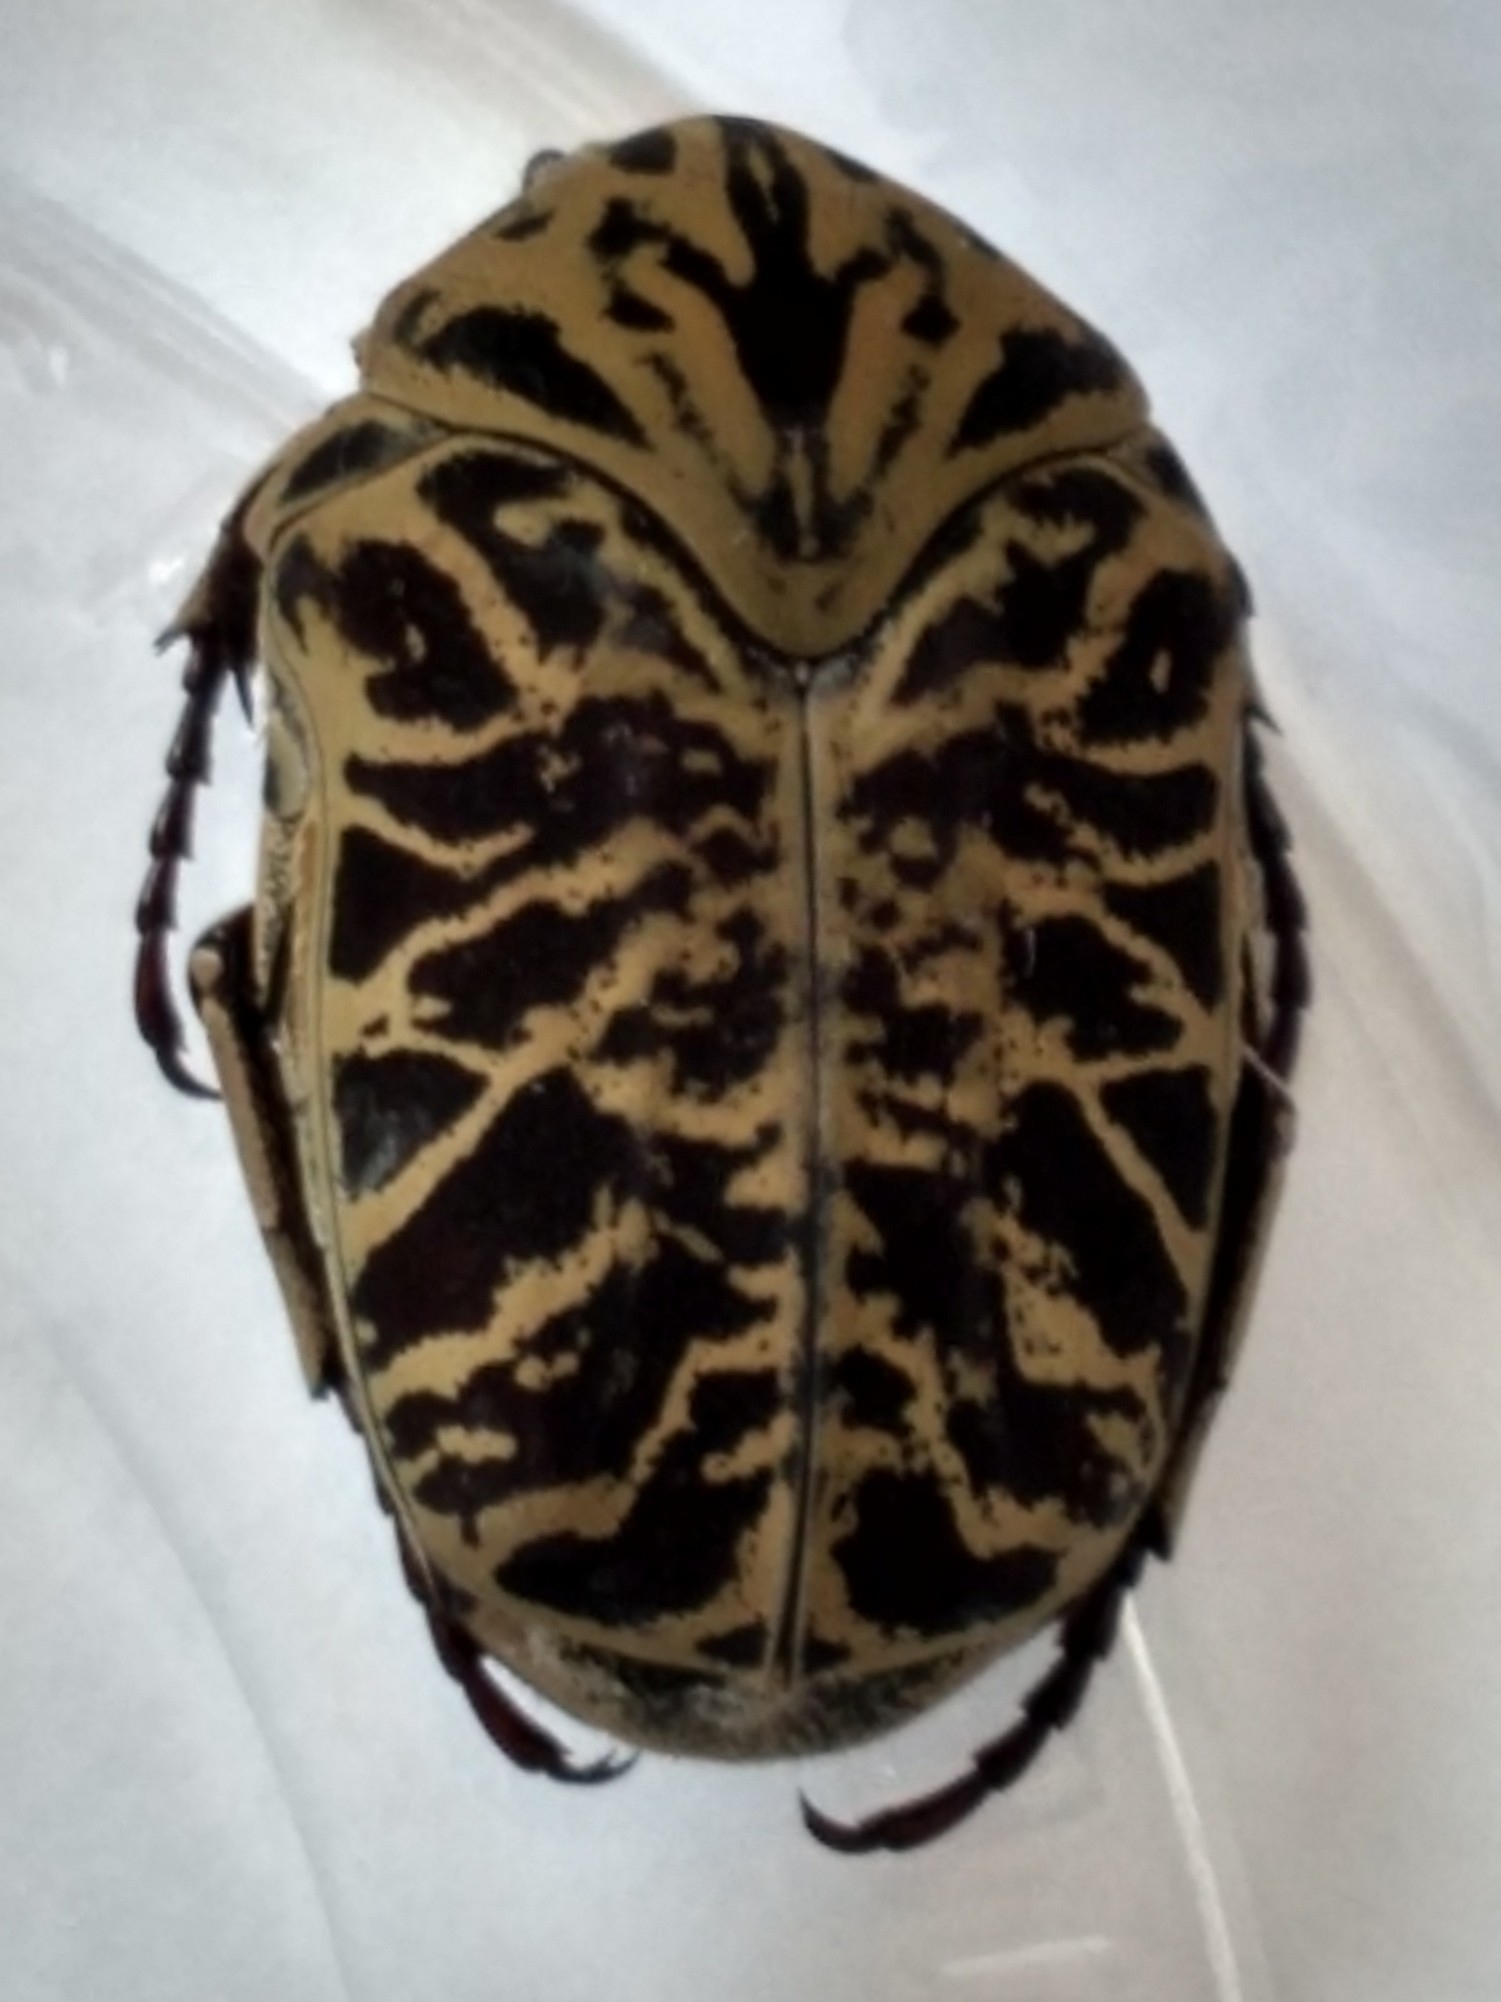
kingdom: Animalia
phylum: Arthropoda
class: Insecta
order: Coleoptera
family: Scarabaeidae
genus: Gymnetis
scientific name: Gymnetis strigosa
